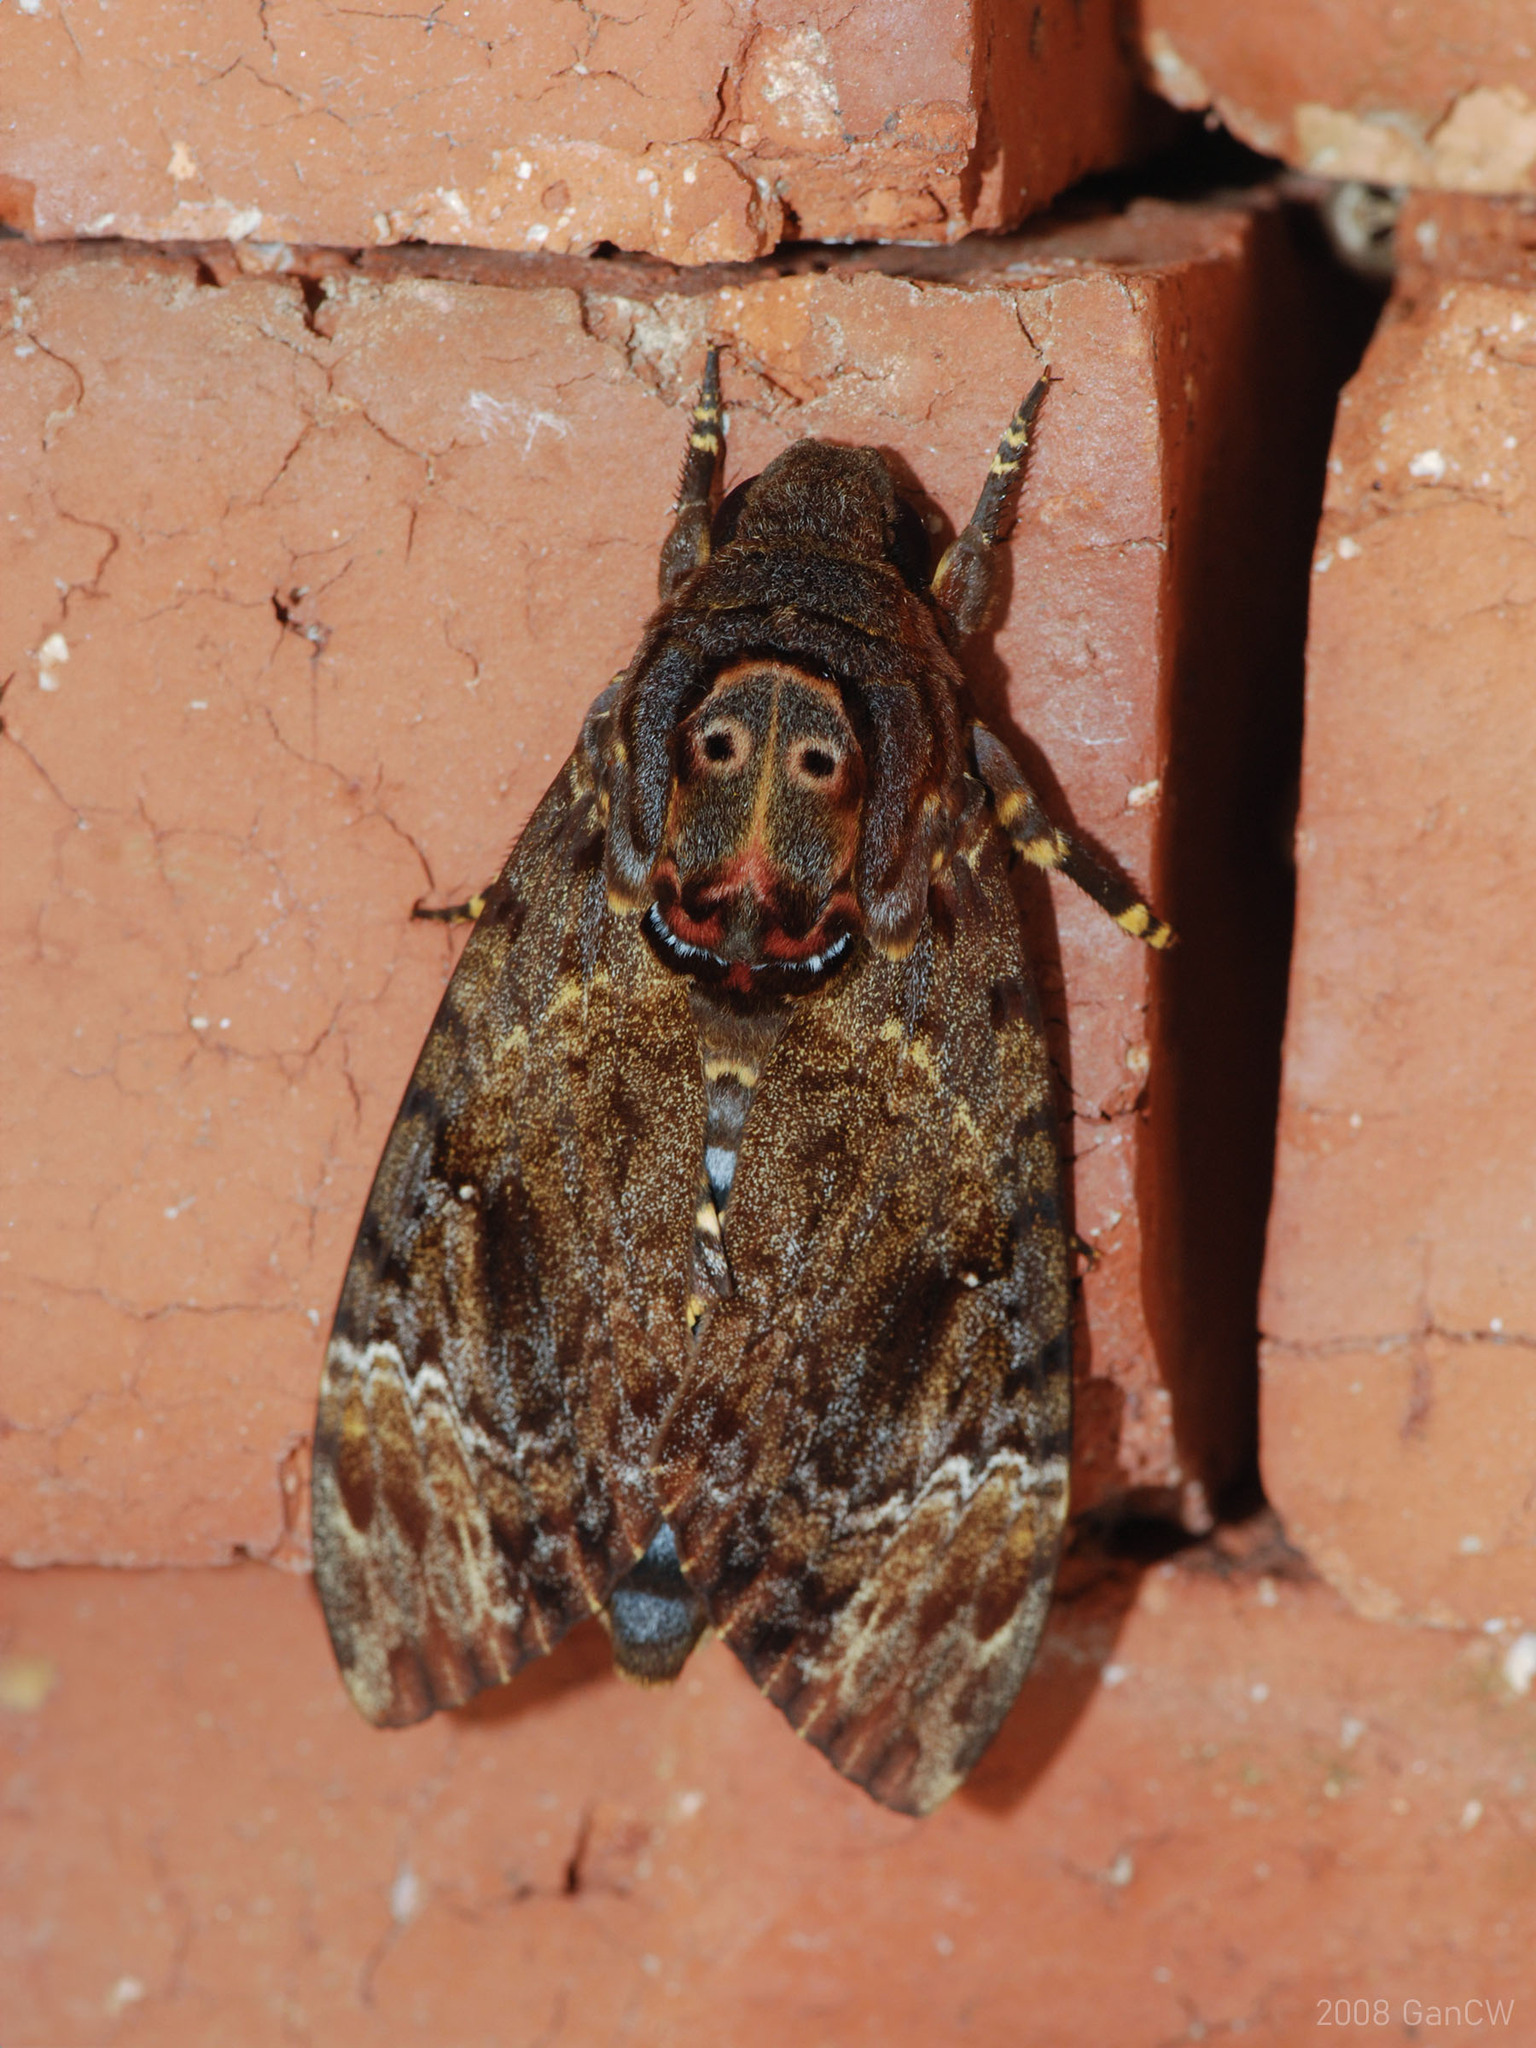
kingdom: Animalia
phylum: Arthropoda
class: Insecta
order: Lepidoptera
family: Sphingidae
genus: Acherontia
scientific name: Acherontia lachesis
